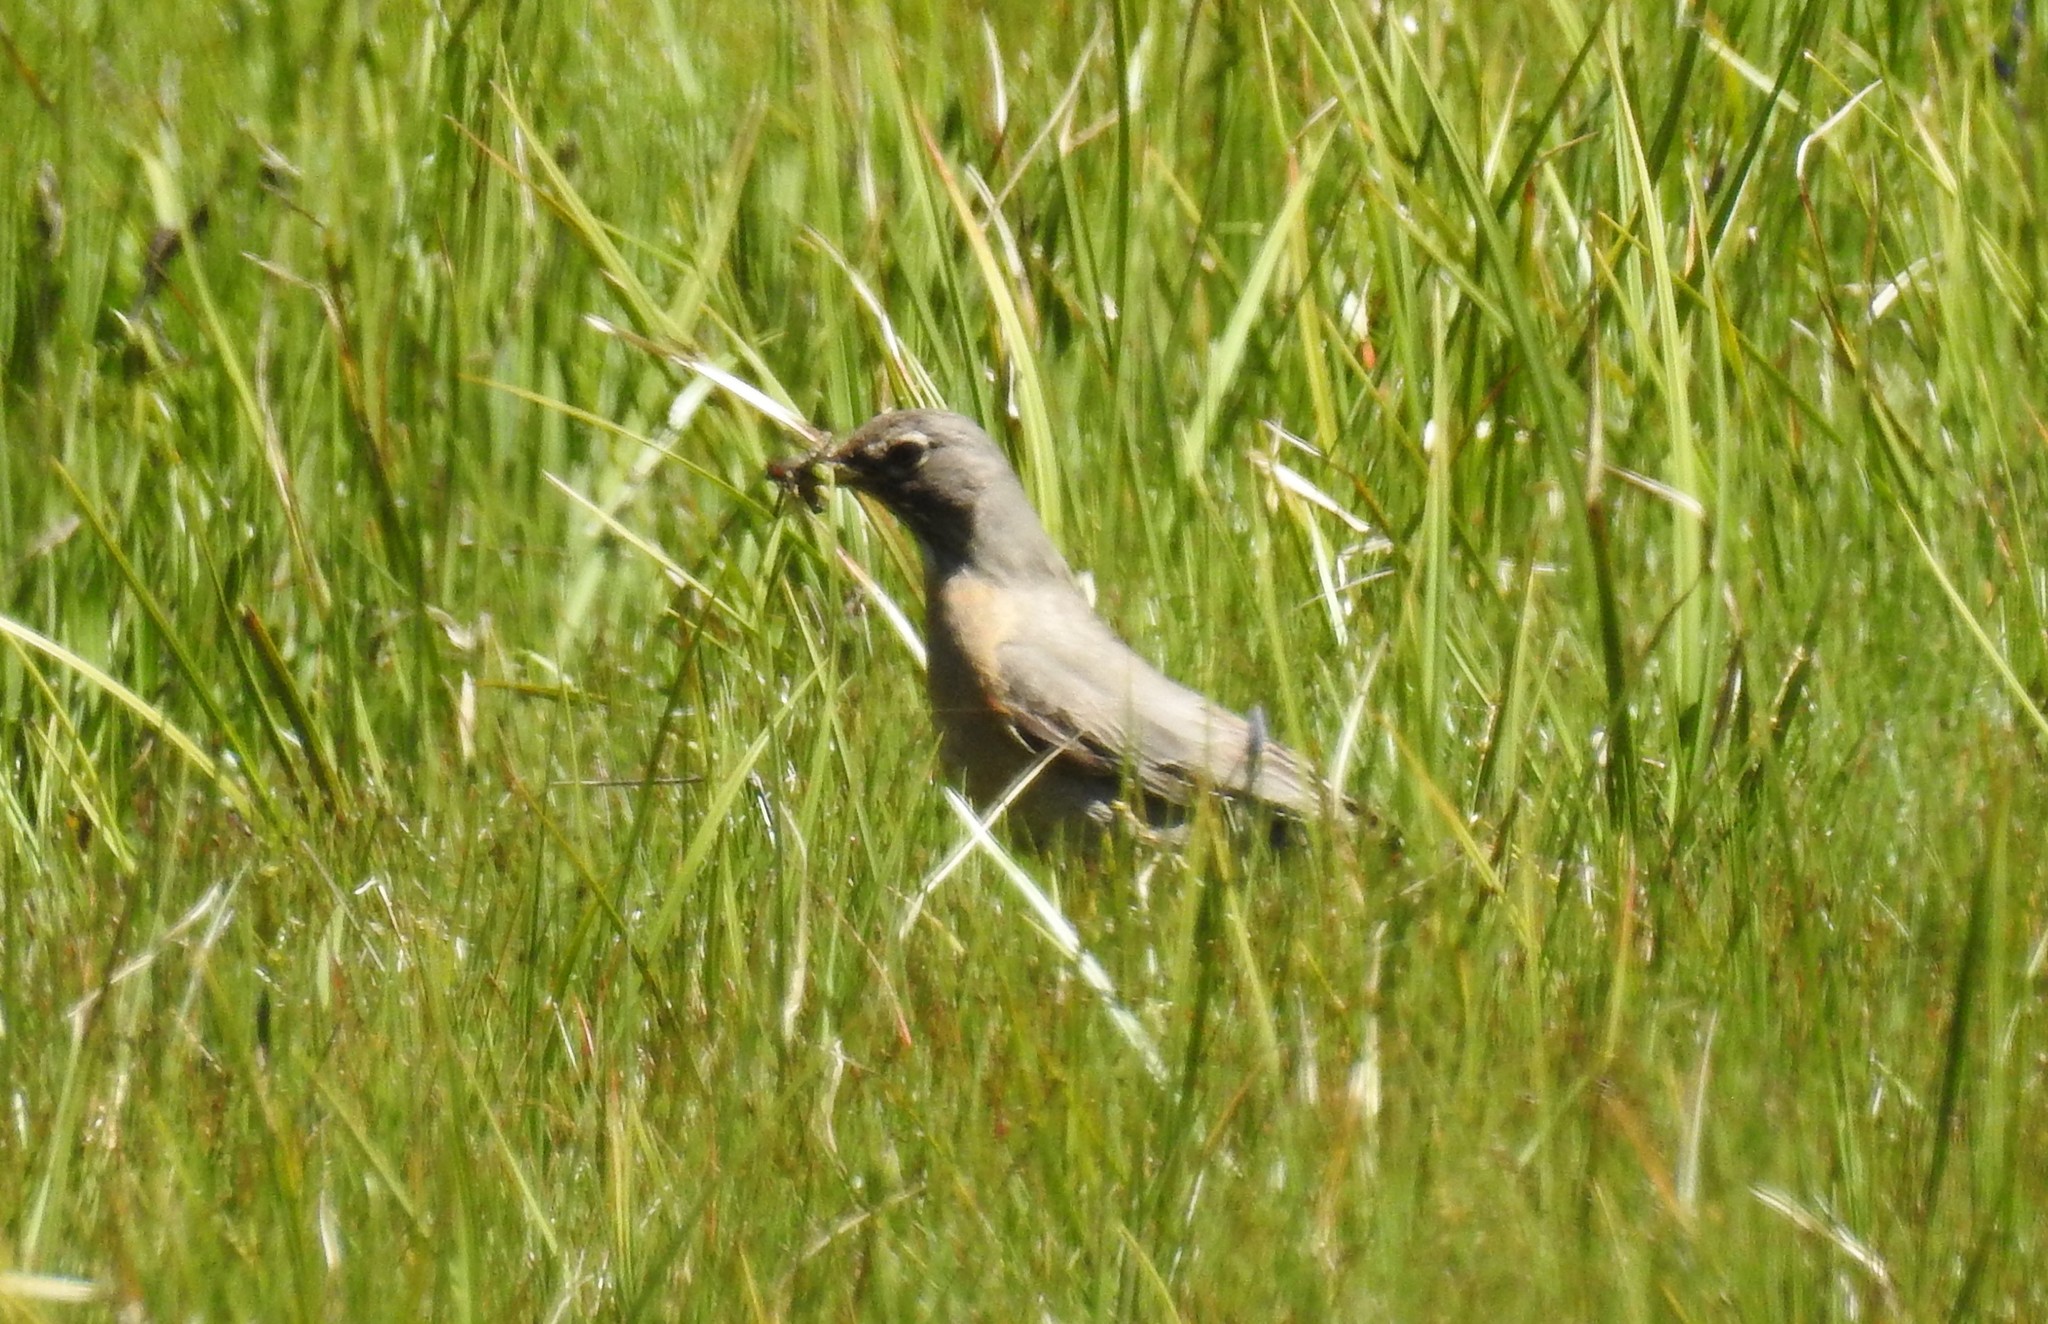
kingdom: Animalia
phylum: Chordata
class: Aves
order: Passeriformes
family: Turdidae
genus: Turdus
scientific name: Turdus migratorius
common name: American robin
